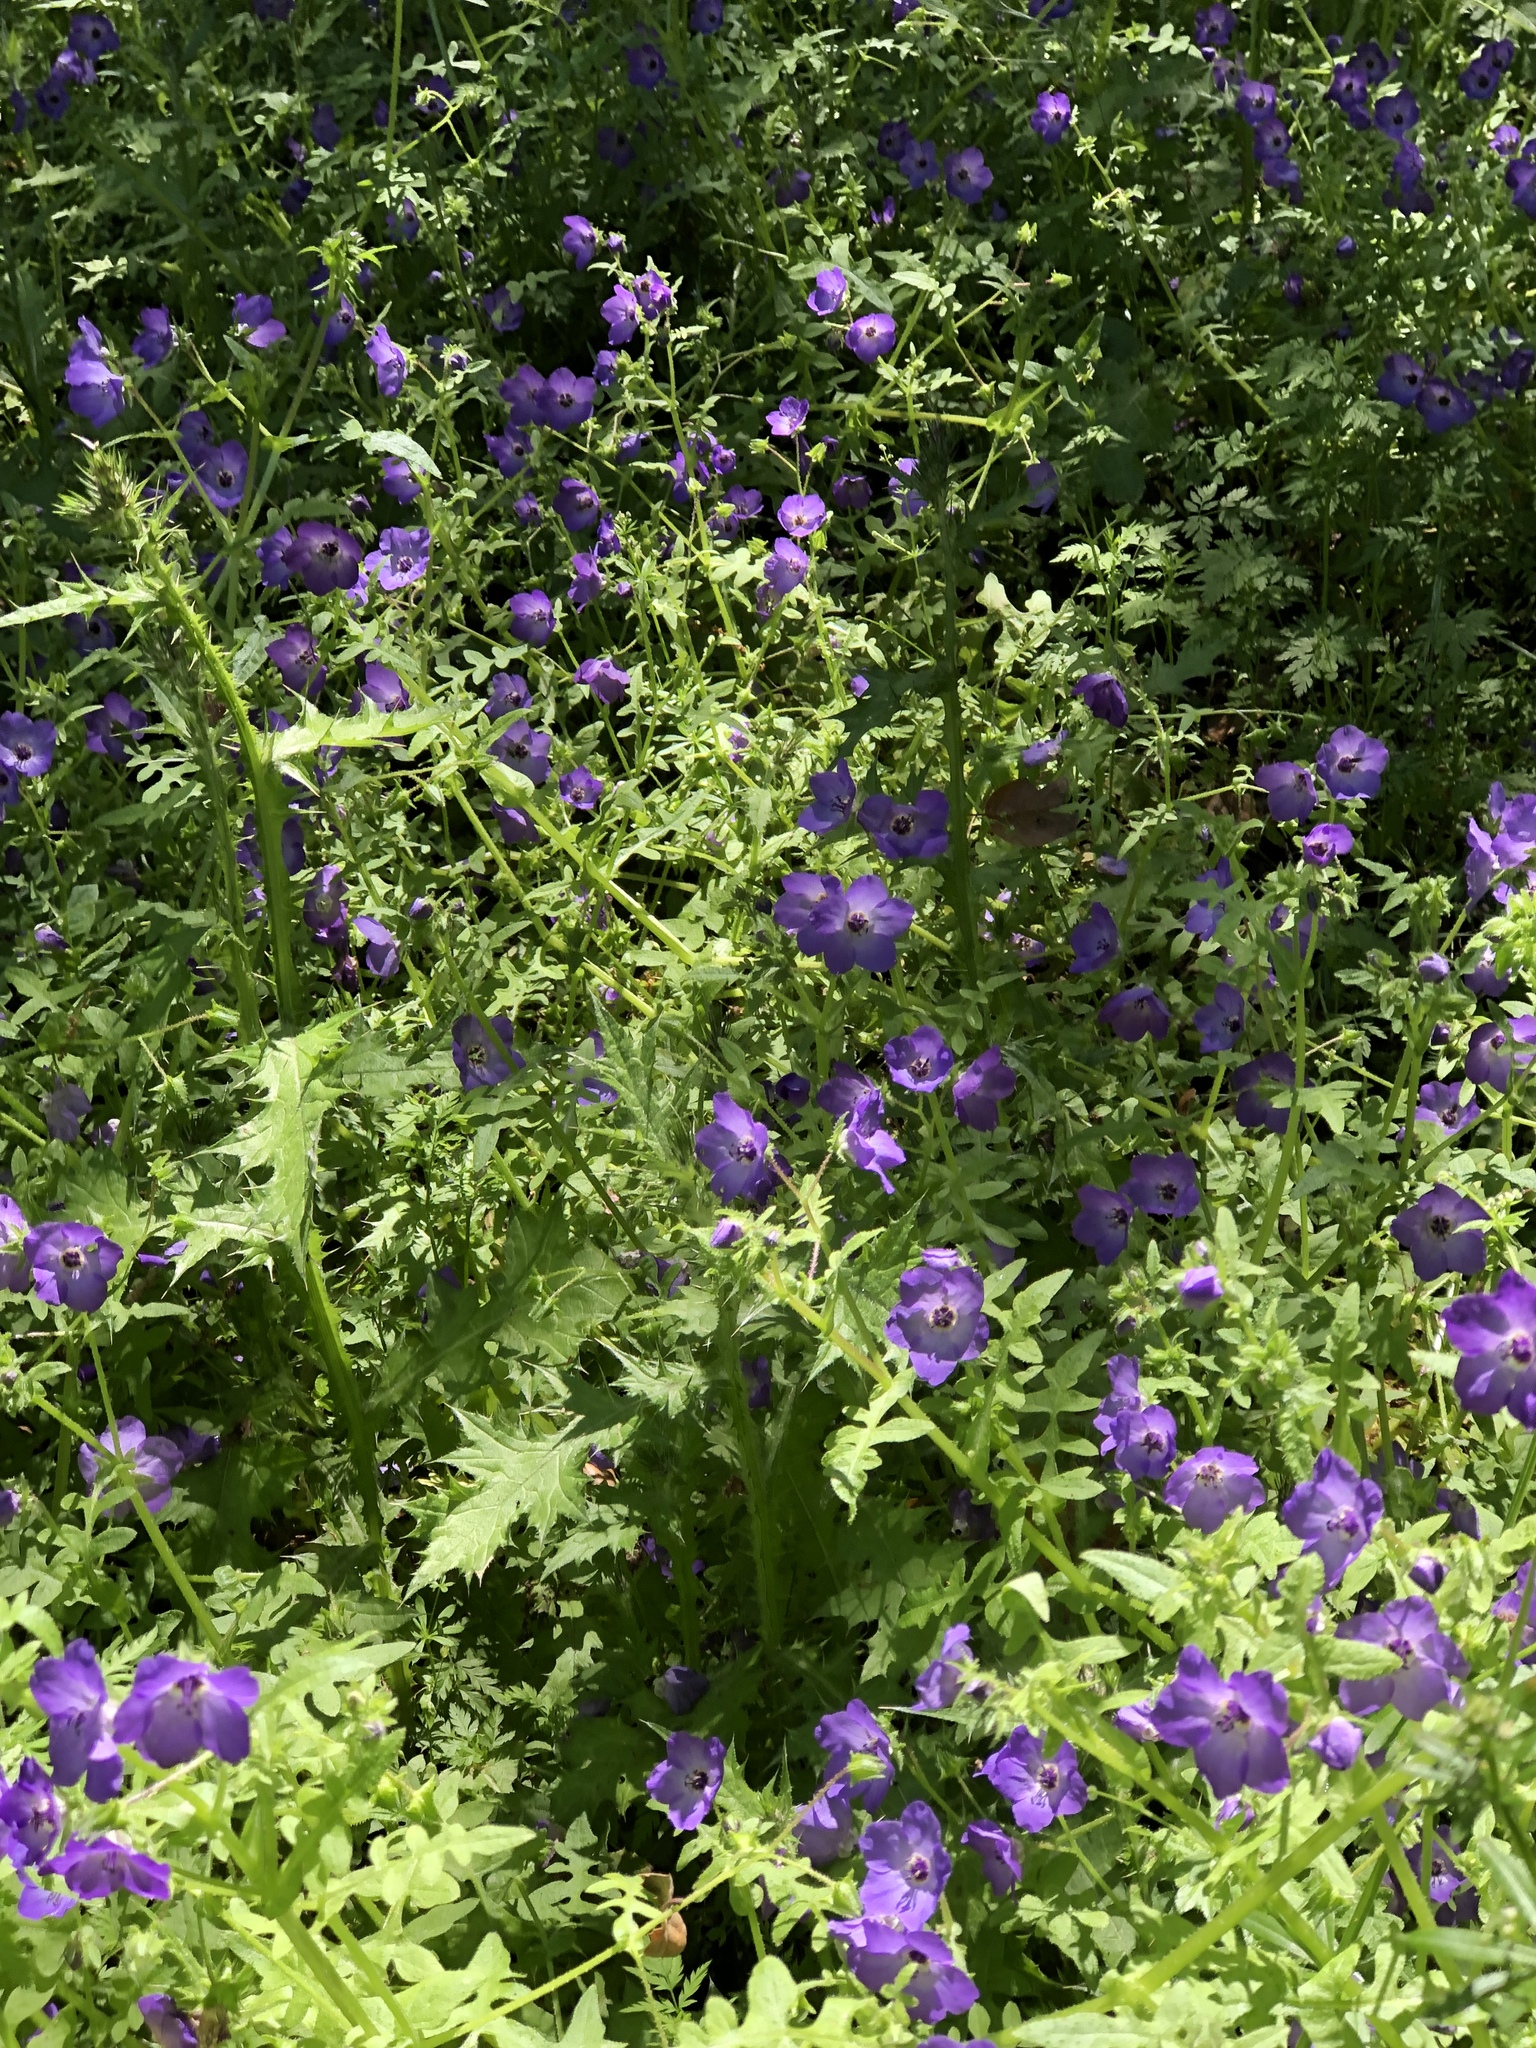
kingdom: Plantae
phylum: Tracheophyta
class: Magnoliopsida
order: Boraginales
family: Hydrophyllaceae
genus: Pholistoma
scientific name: Pholistoma auritum
